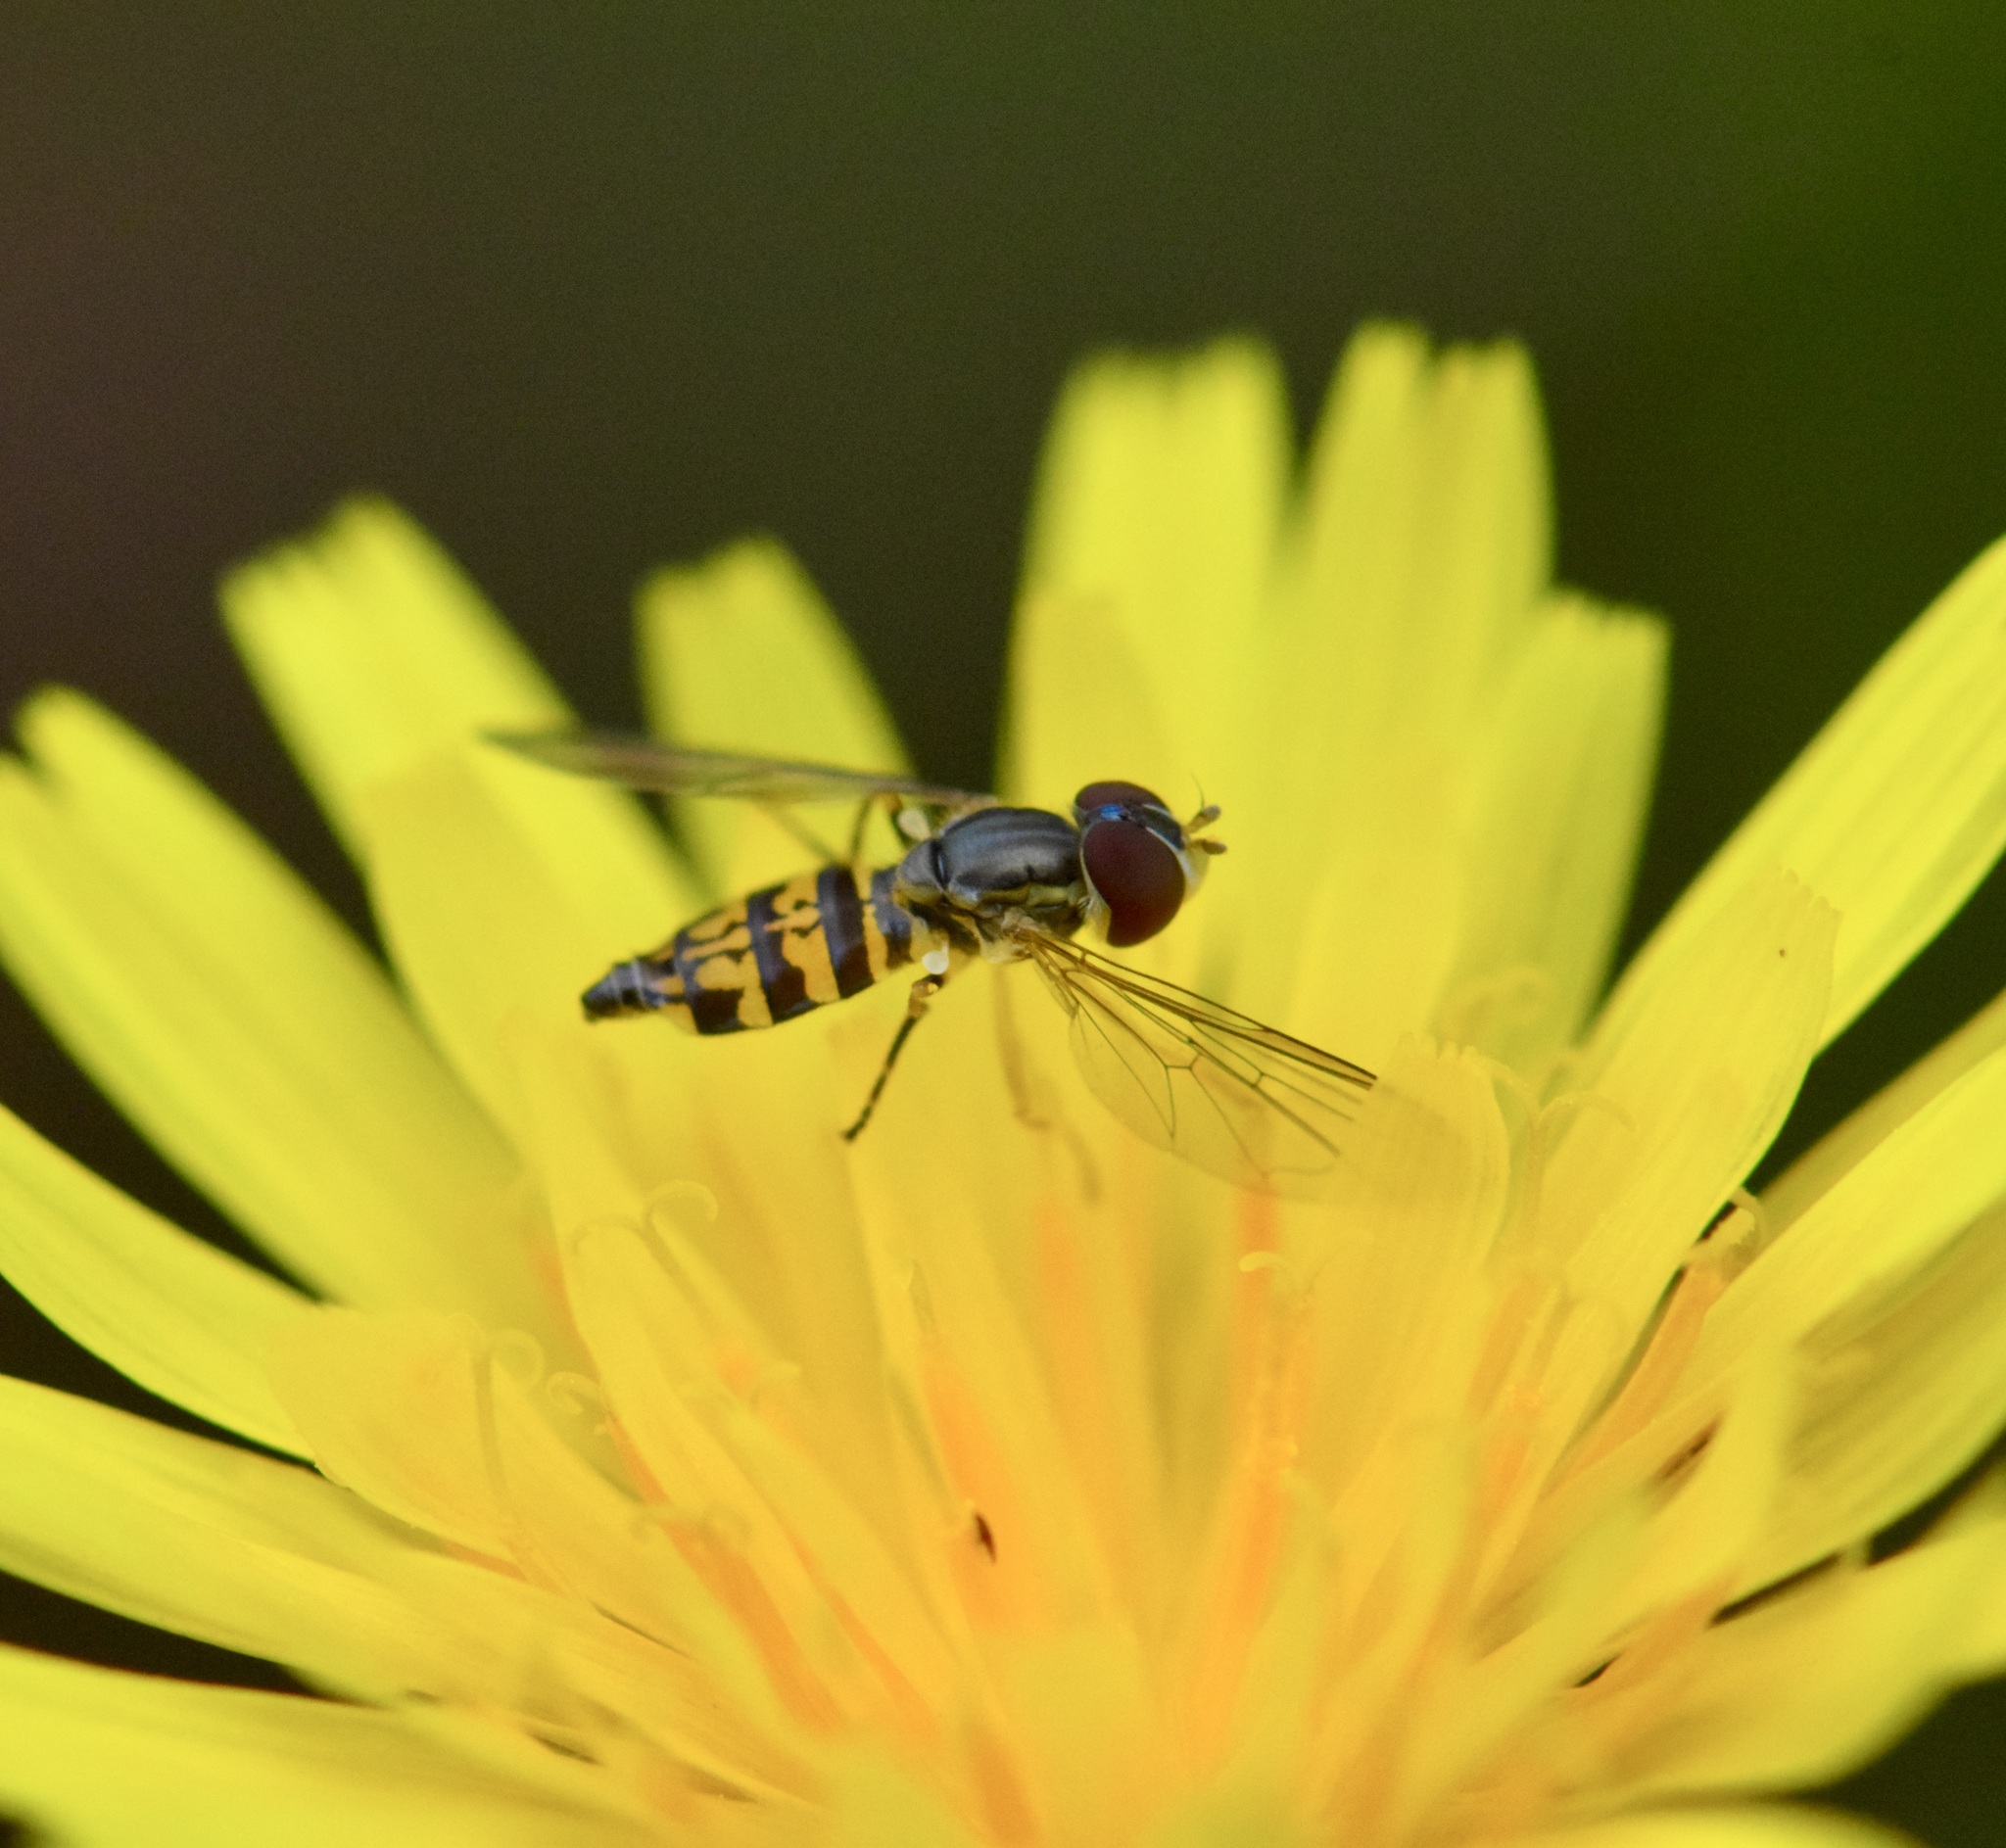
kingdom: Animalia
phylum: Arthropoda
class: Insecta
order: Diptera
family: Syrphidae
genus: Toxomerus
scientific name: Toxomerus geminatus
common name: Eastern calligrapher
